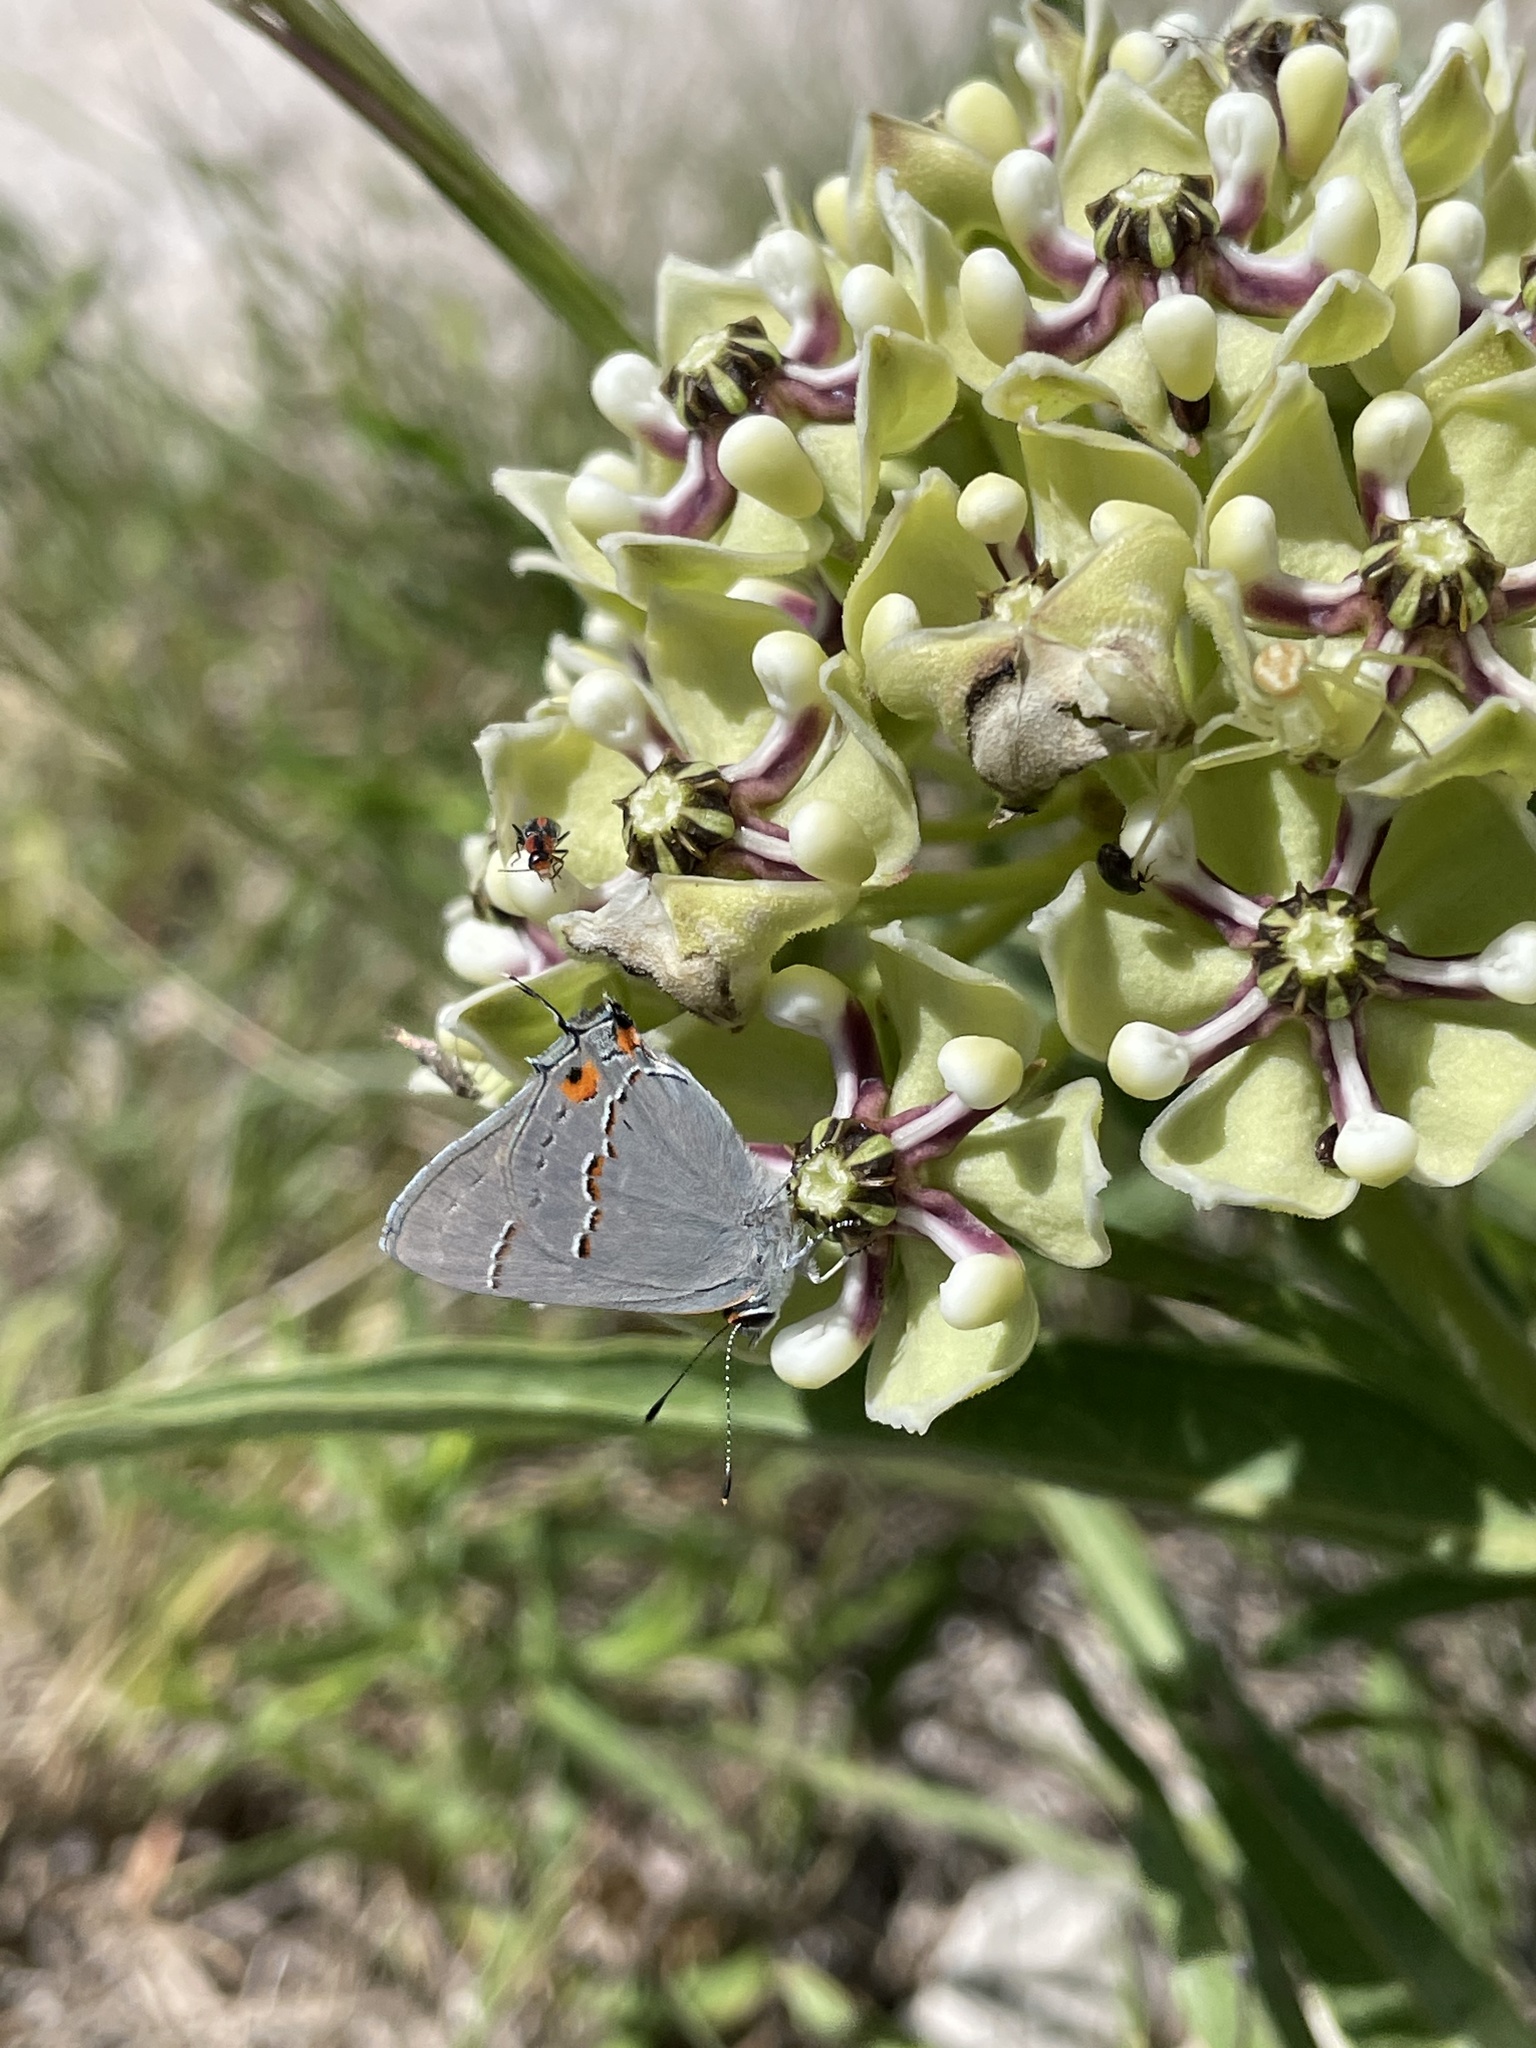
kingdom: Animalia
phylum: Arthropoda
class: Insecta
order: Lepidoptera
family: Lycaenidae
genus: Strymon
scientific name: Strymon melinus
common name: Gray hairstreak
